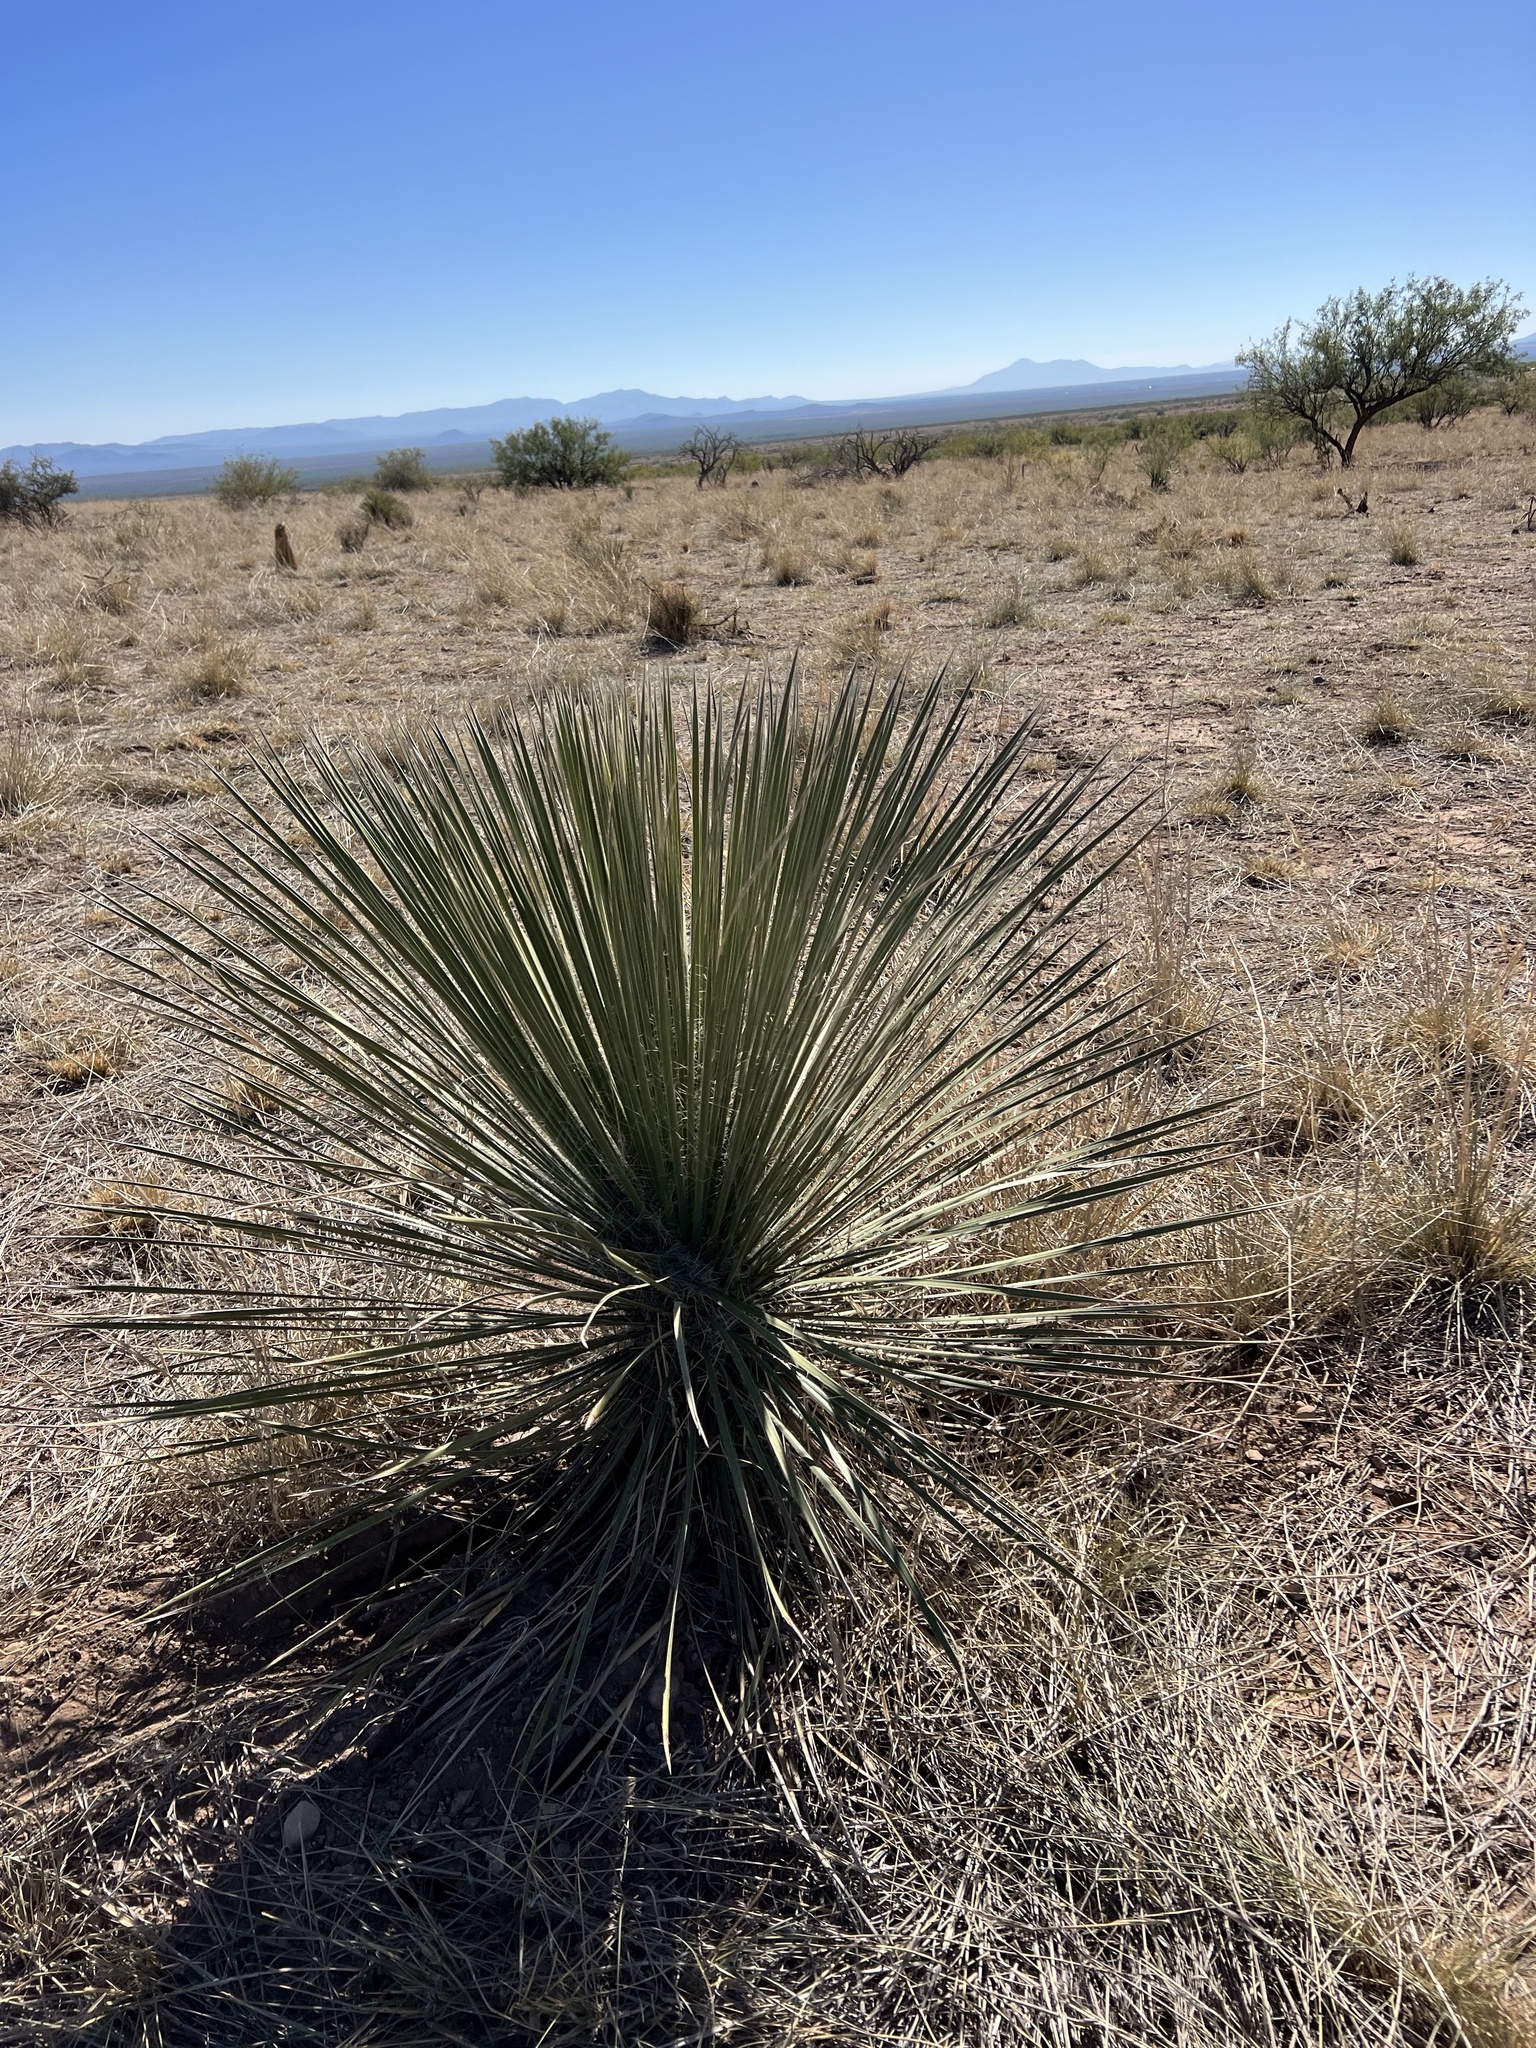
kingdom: Plantae
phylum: Tracheophyta
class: Liliopsida
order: Asparagales
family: Asparagaceae
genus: Yucca
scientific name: Yucca elata
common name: Palmella
